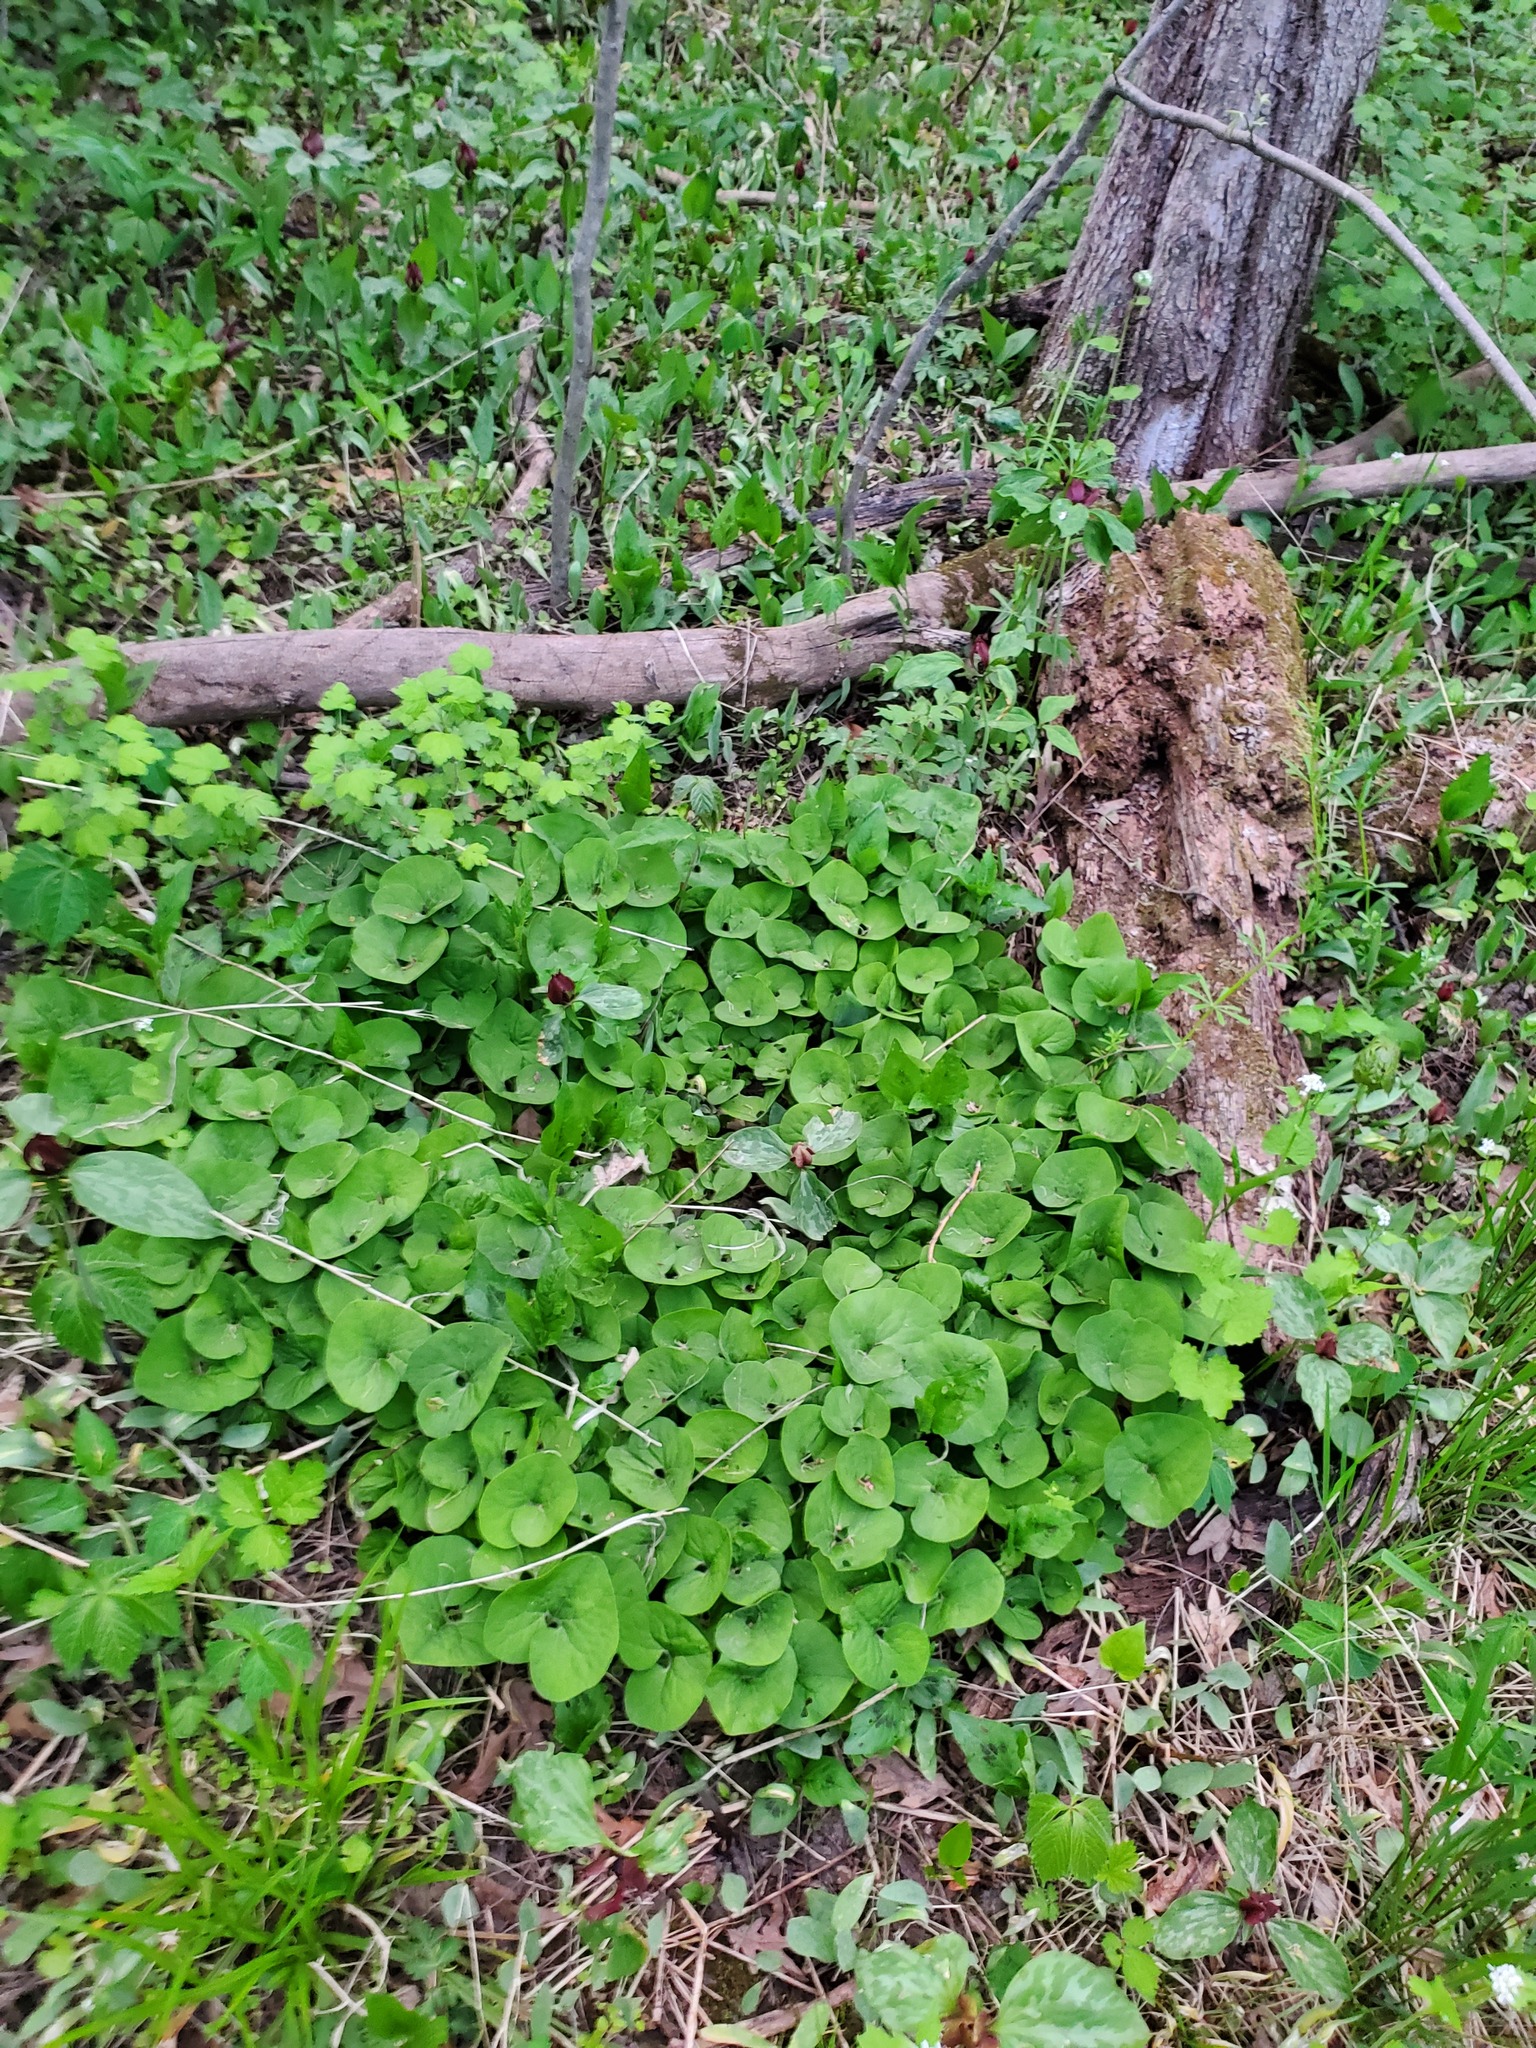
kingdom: Plantae
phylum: Tracheophyta
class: Magnoliopsida
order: Piperales
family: Aristolochiaceae
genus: Asarum
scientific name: Asarum canadense
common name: Wild ginger
